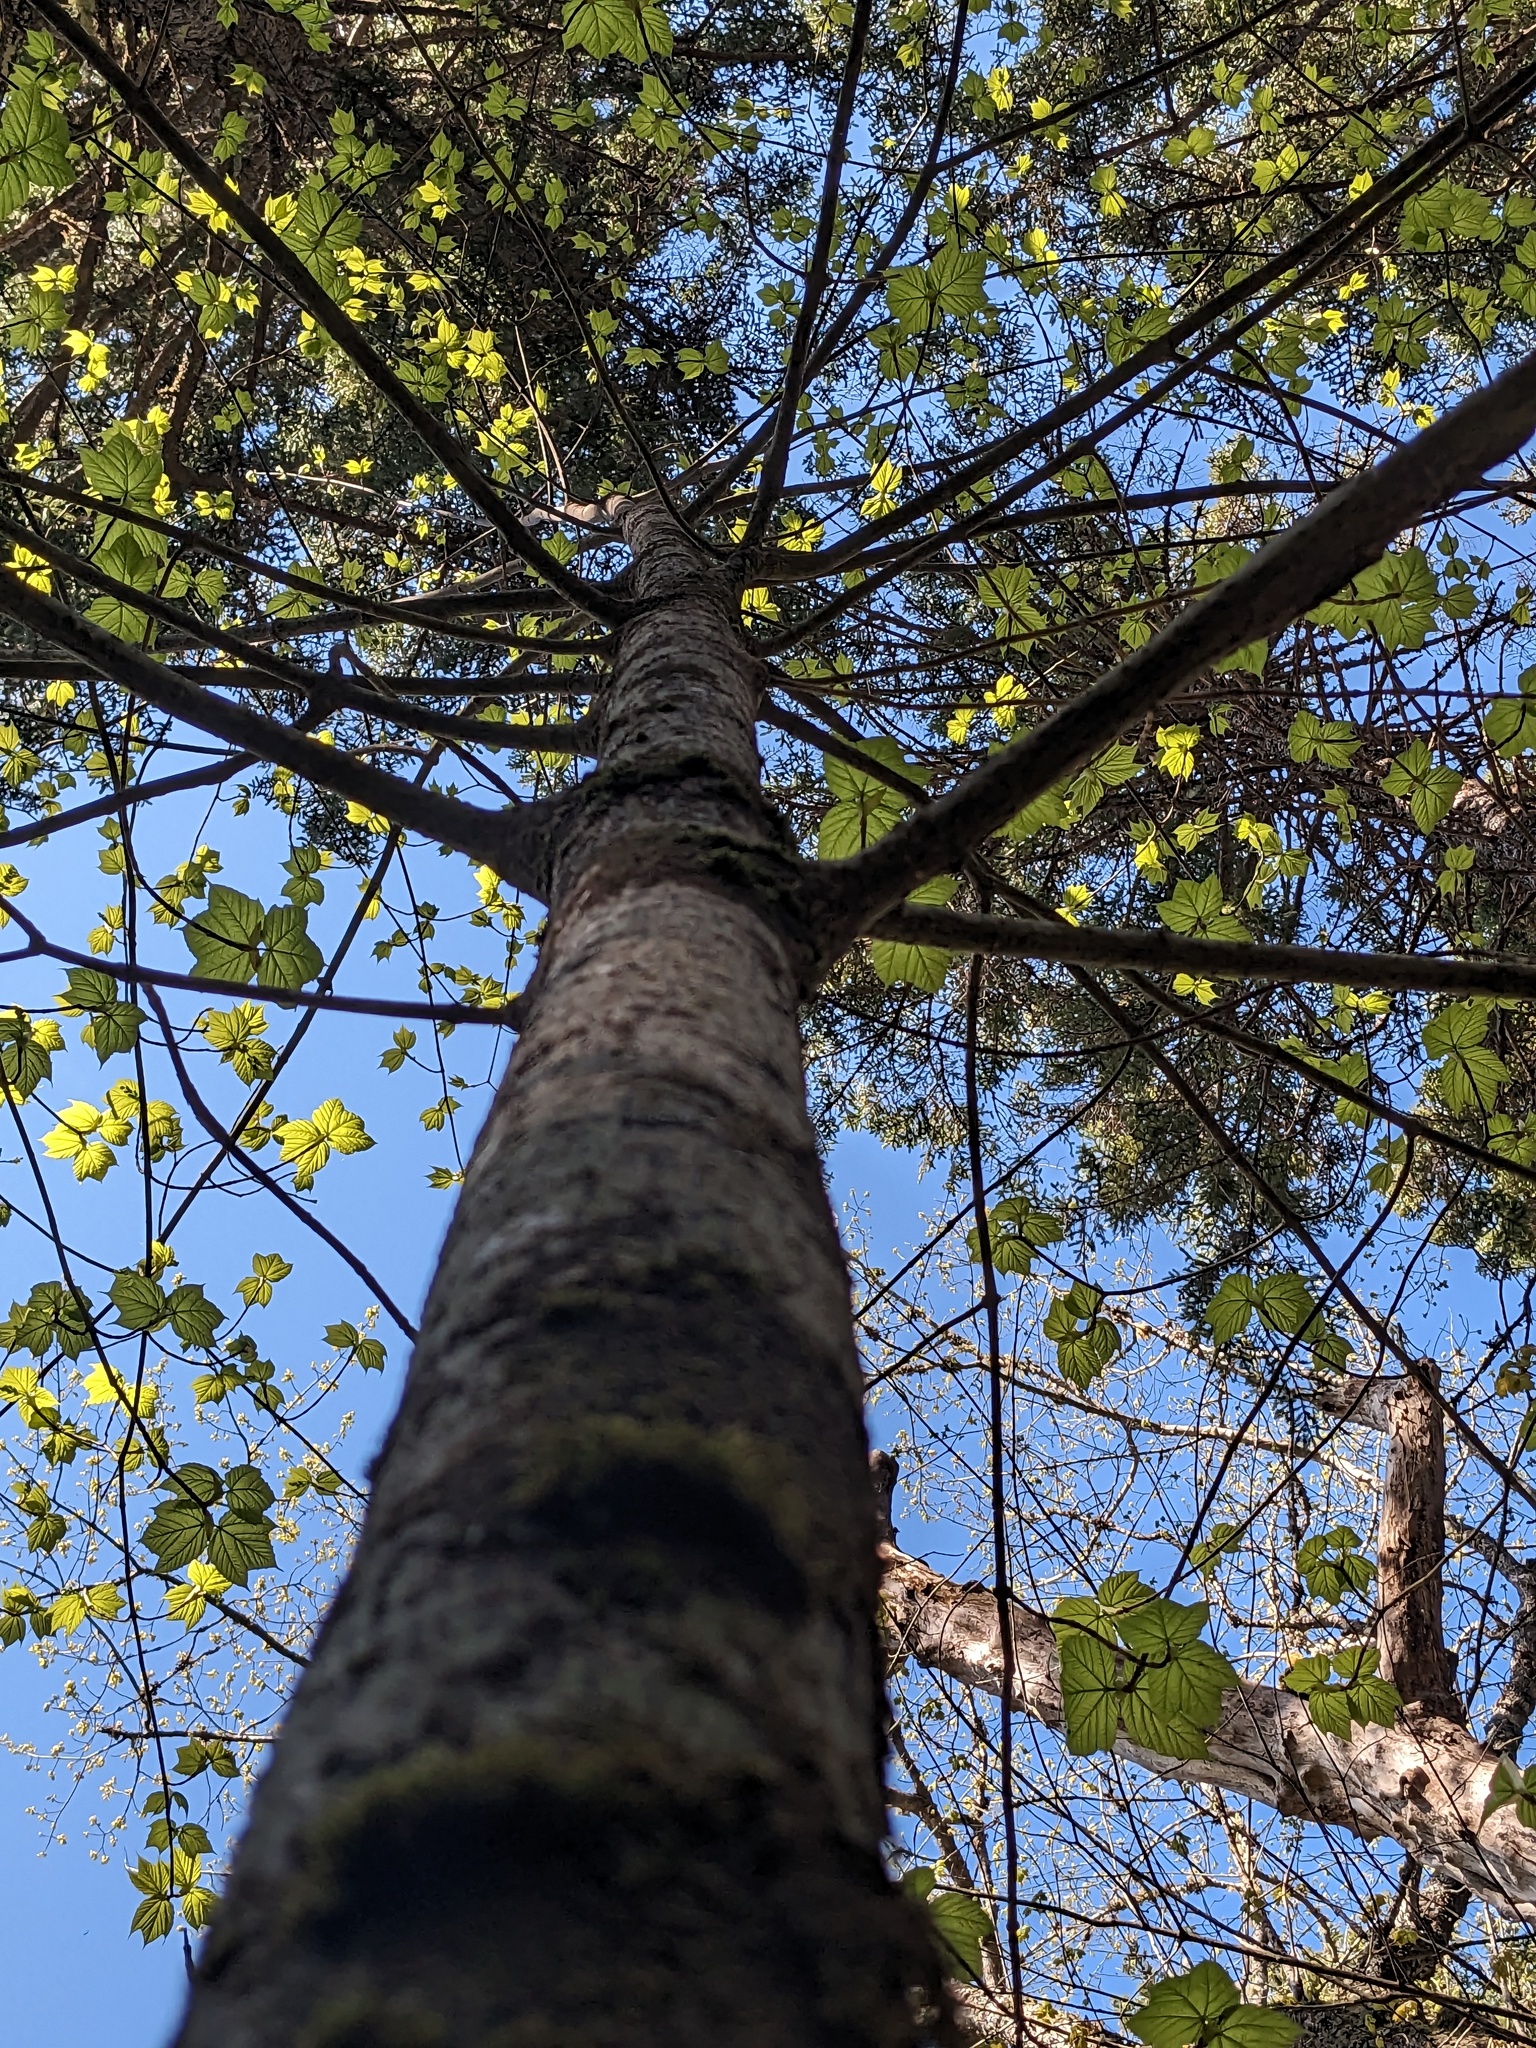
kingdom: Plantae
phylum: Tracheophyta
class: Magnoliopsida
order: Sapindales
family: Sapindaceae
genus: Acer
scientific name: Acer pensylvanicum
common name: Moosewood
